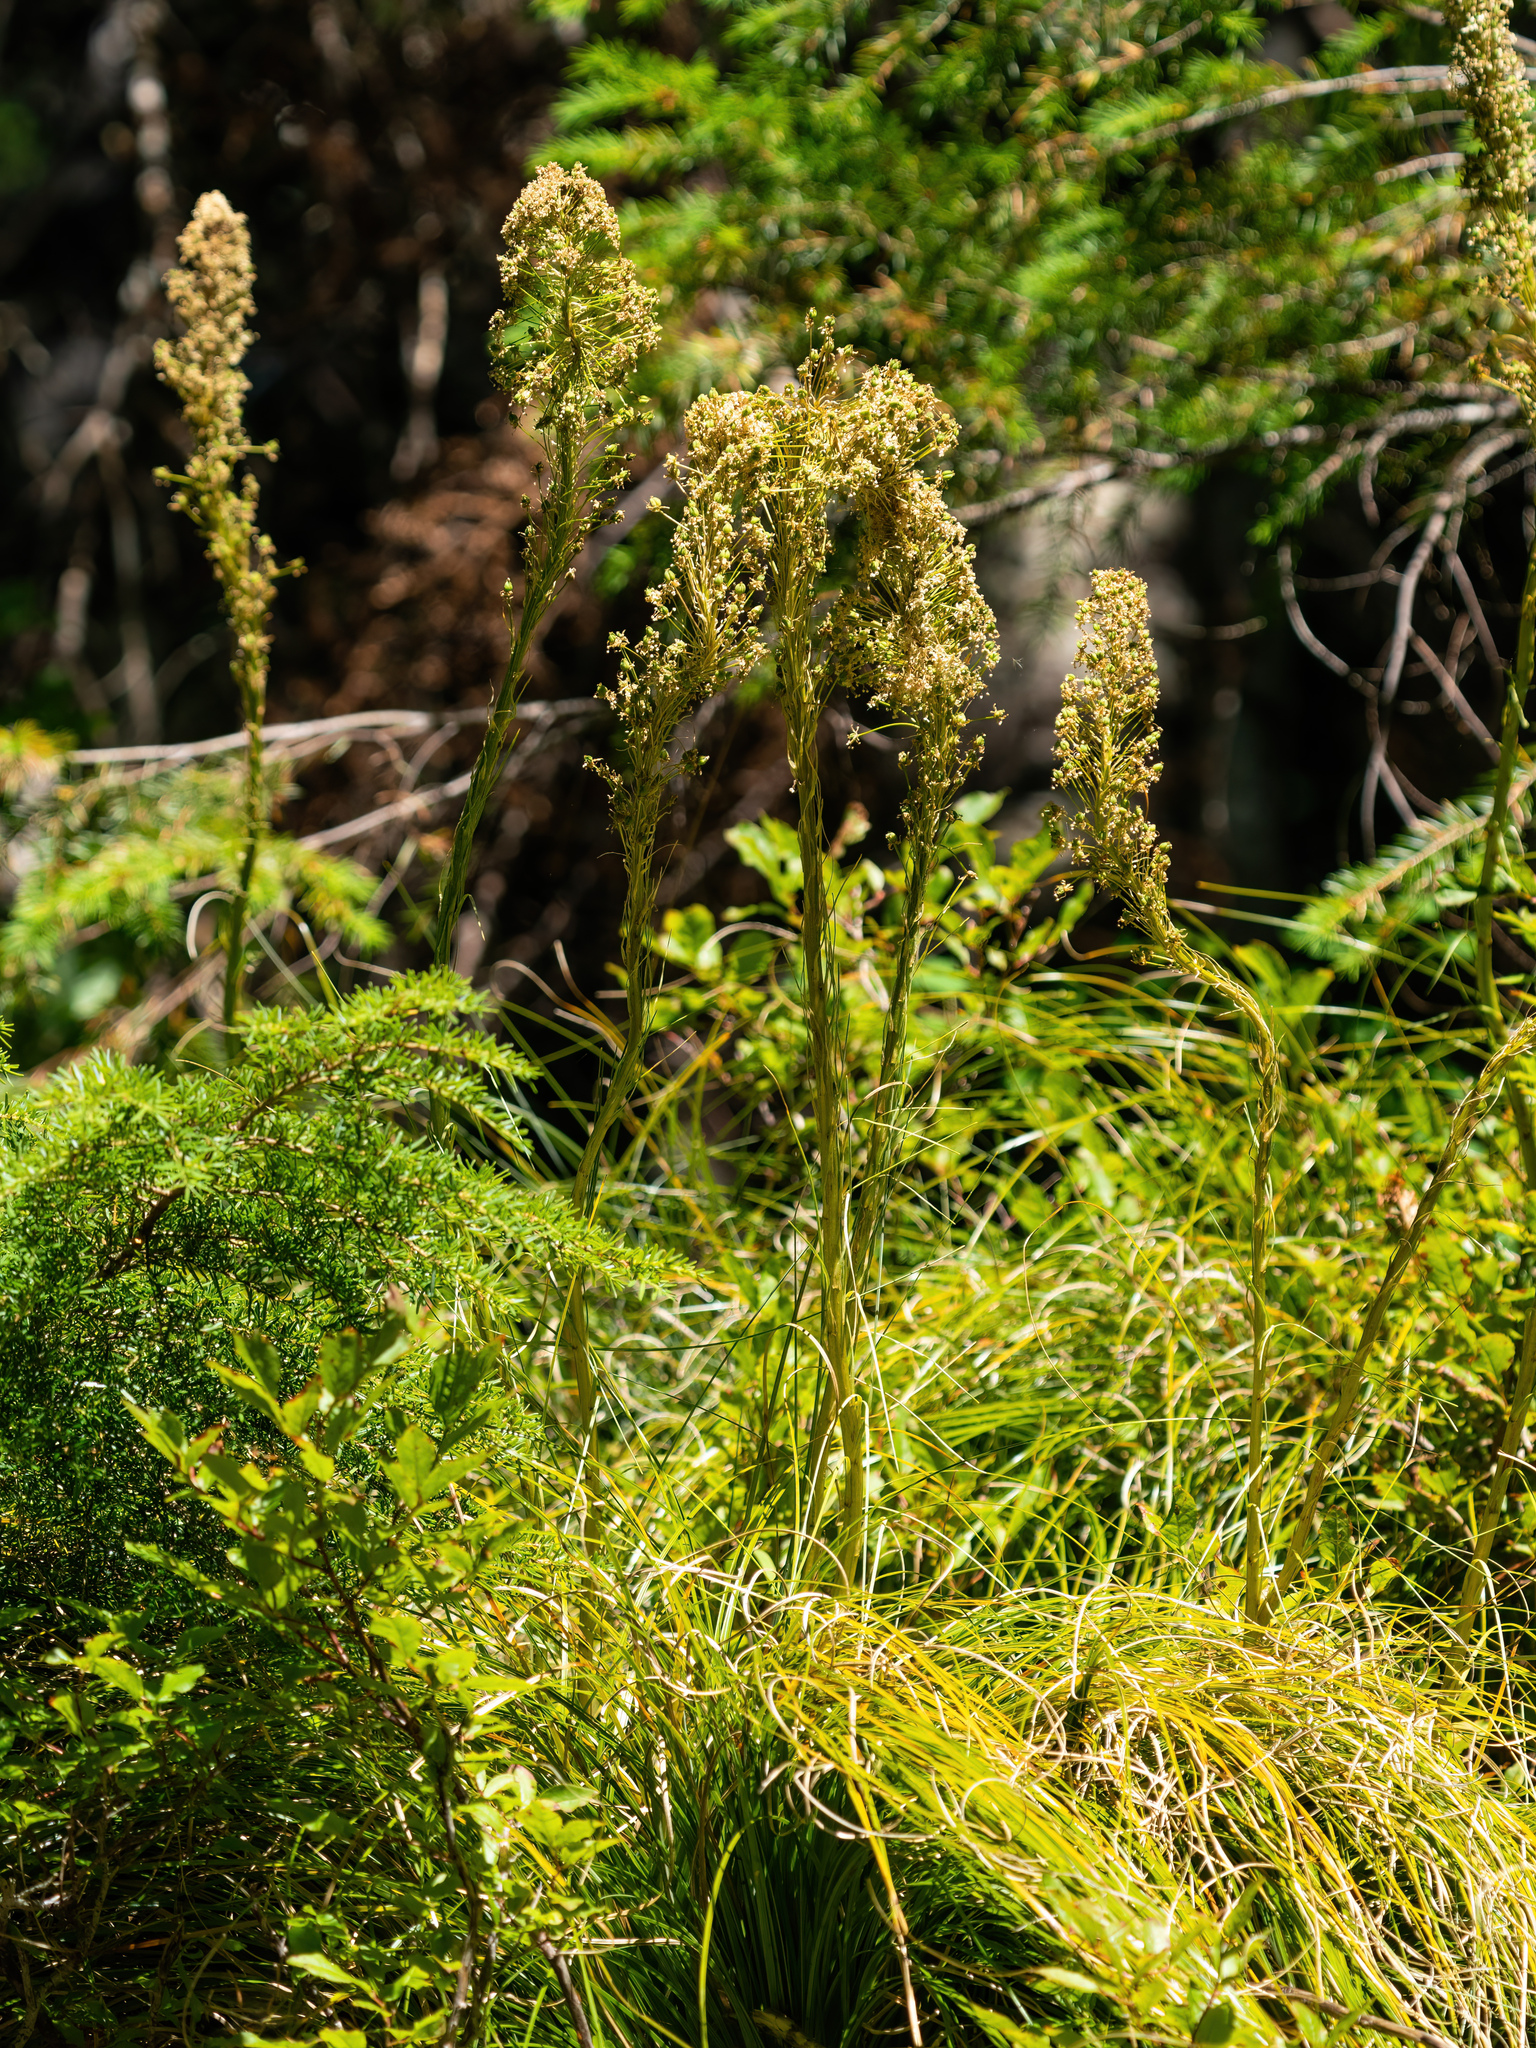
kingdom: Plantae
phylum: Tracheophyta
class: Liliopsida
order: Liliales
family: Melanthiaceae
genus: Xerophyllum
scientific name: Xerophyllum tenax
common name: Bear-grass
